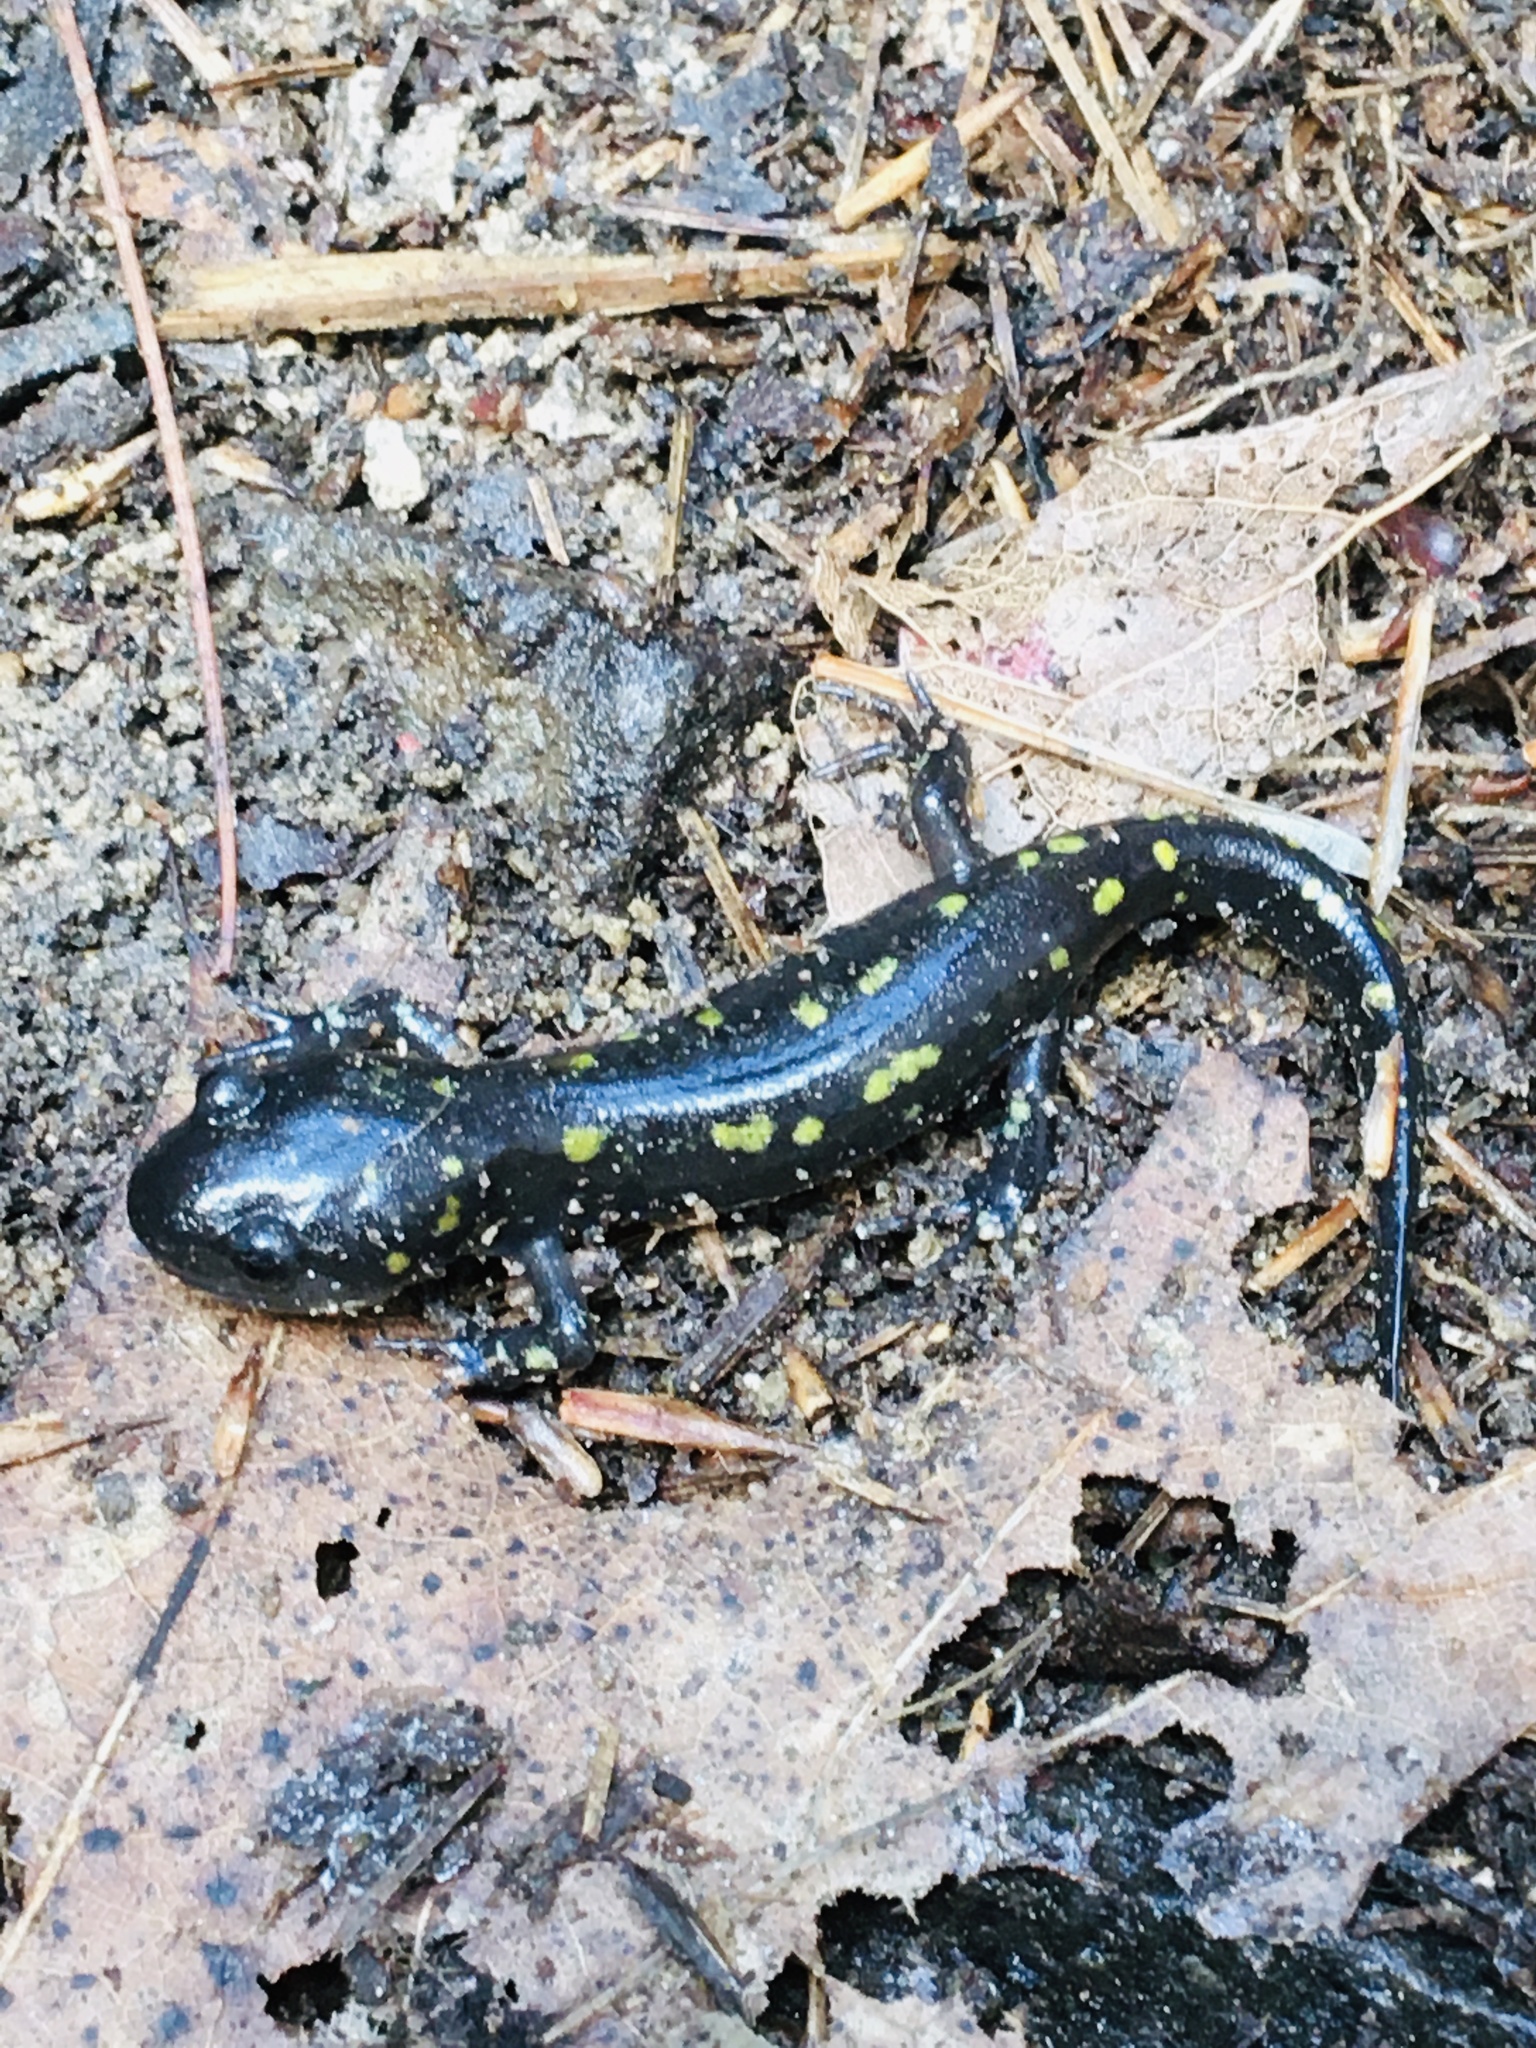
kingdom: Animalia
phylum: Chordata
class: Amphibia
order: Caudata
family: Ambystomatidae
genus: Ambystoma
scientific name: Ambystoma maculatum
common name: Spotted salamander
